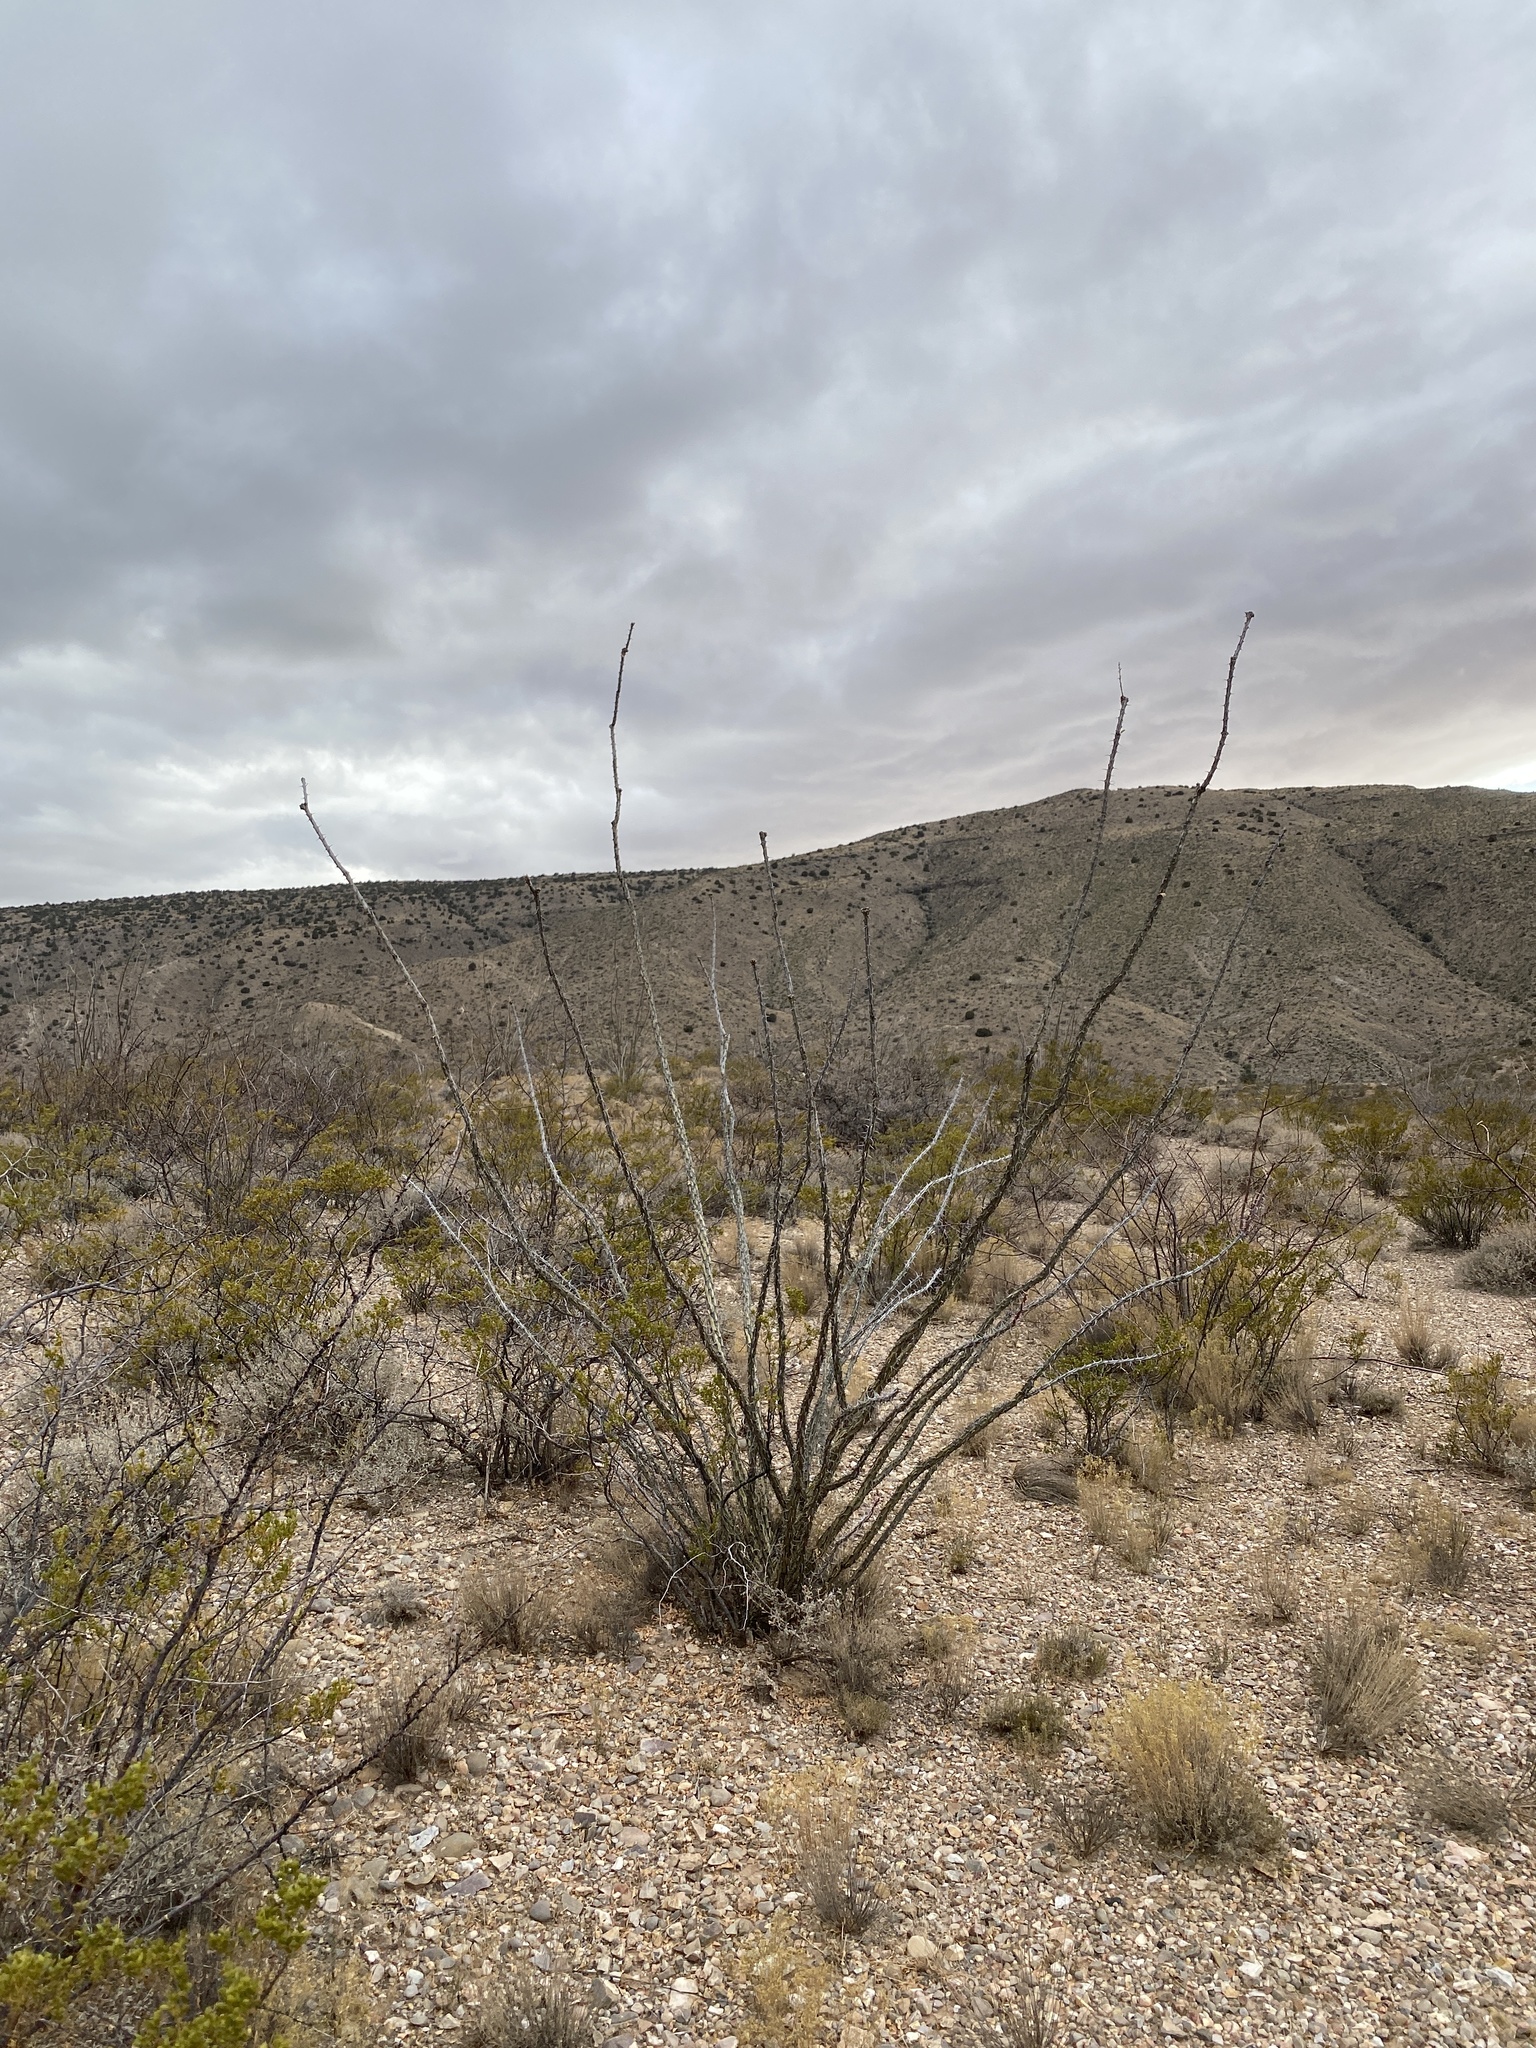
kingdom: Plantae
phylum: Tracheophyta
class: Magnoliopsida
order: Ericales
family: Fouquieriaceae
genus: Fouquieria
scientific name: Fouquieria splendens
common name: Vine-cactus
